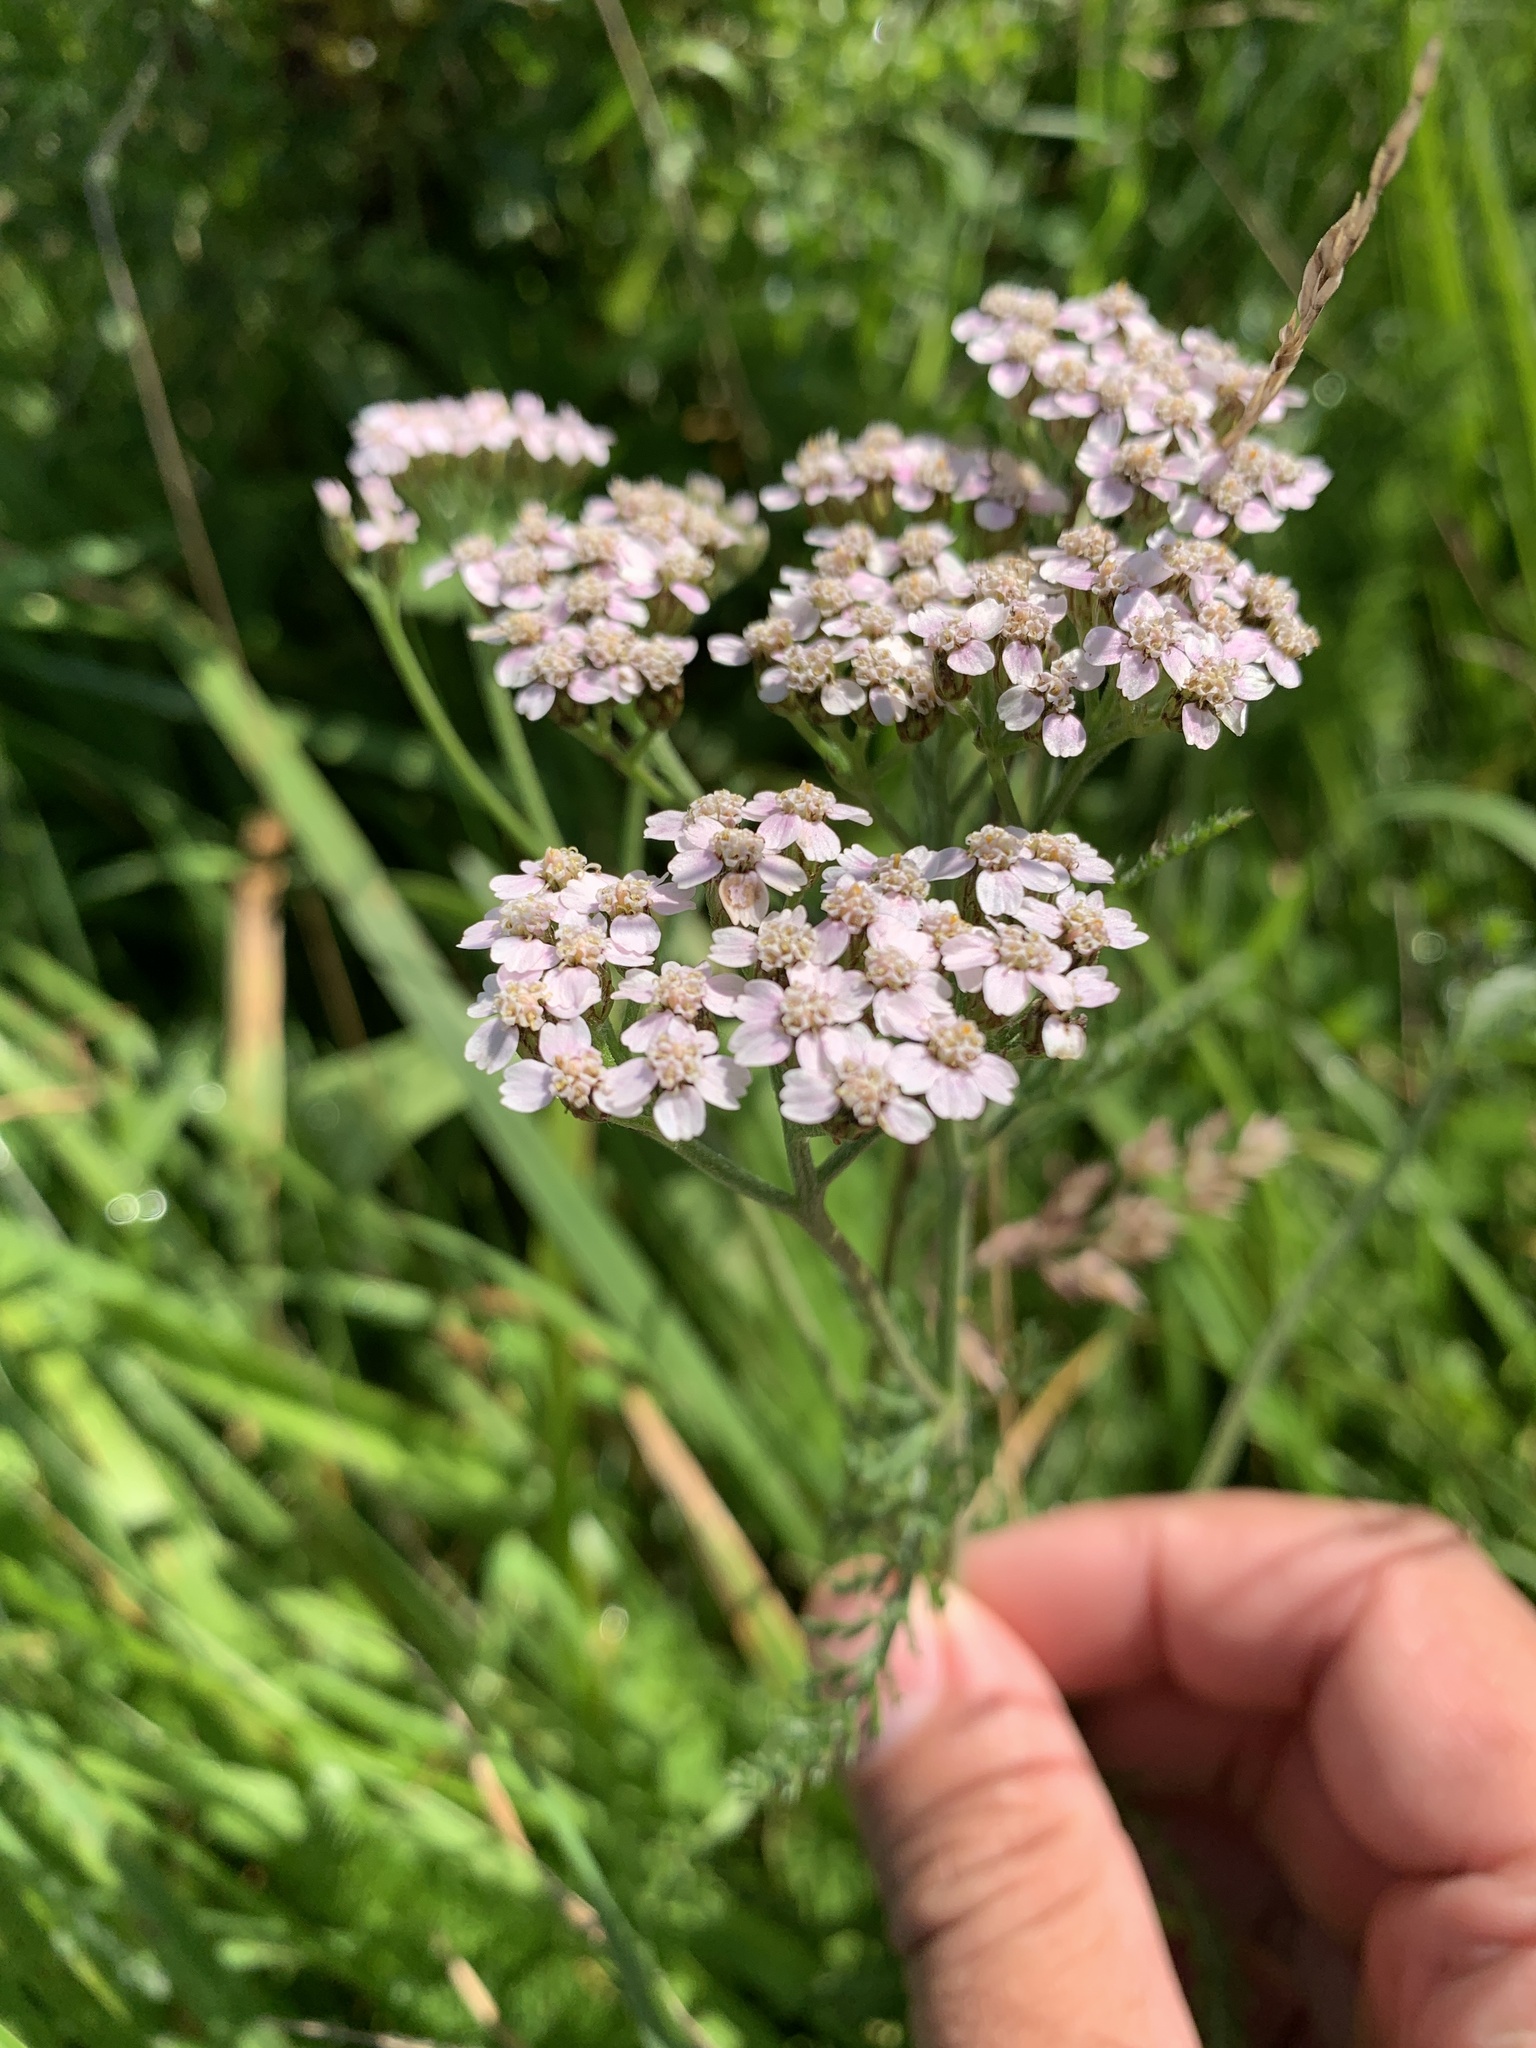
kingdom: Plantae
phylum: Tracheophyta
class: Magnoliopsida
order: Asterales
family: Asteraceae
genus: Achillea
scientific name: Achillea millefolium
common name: Yarrow
